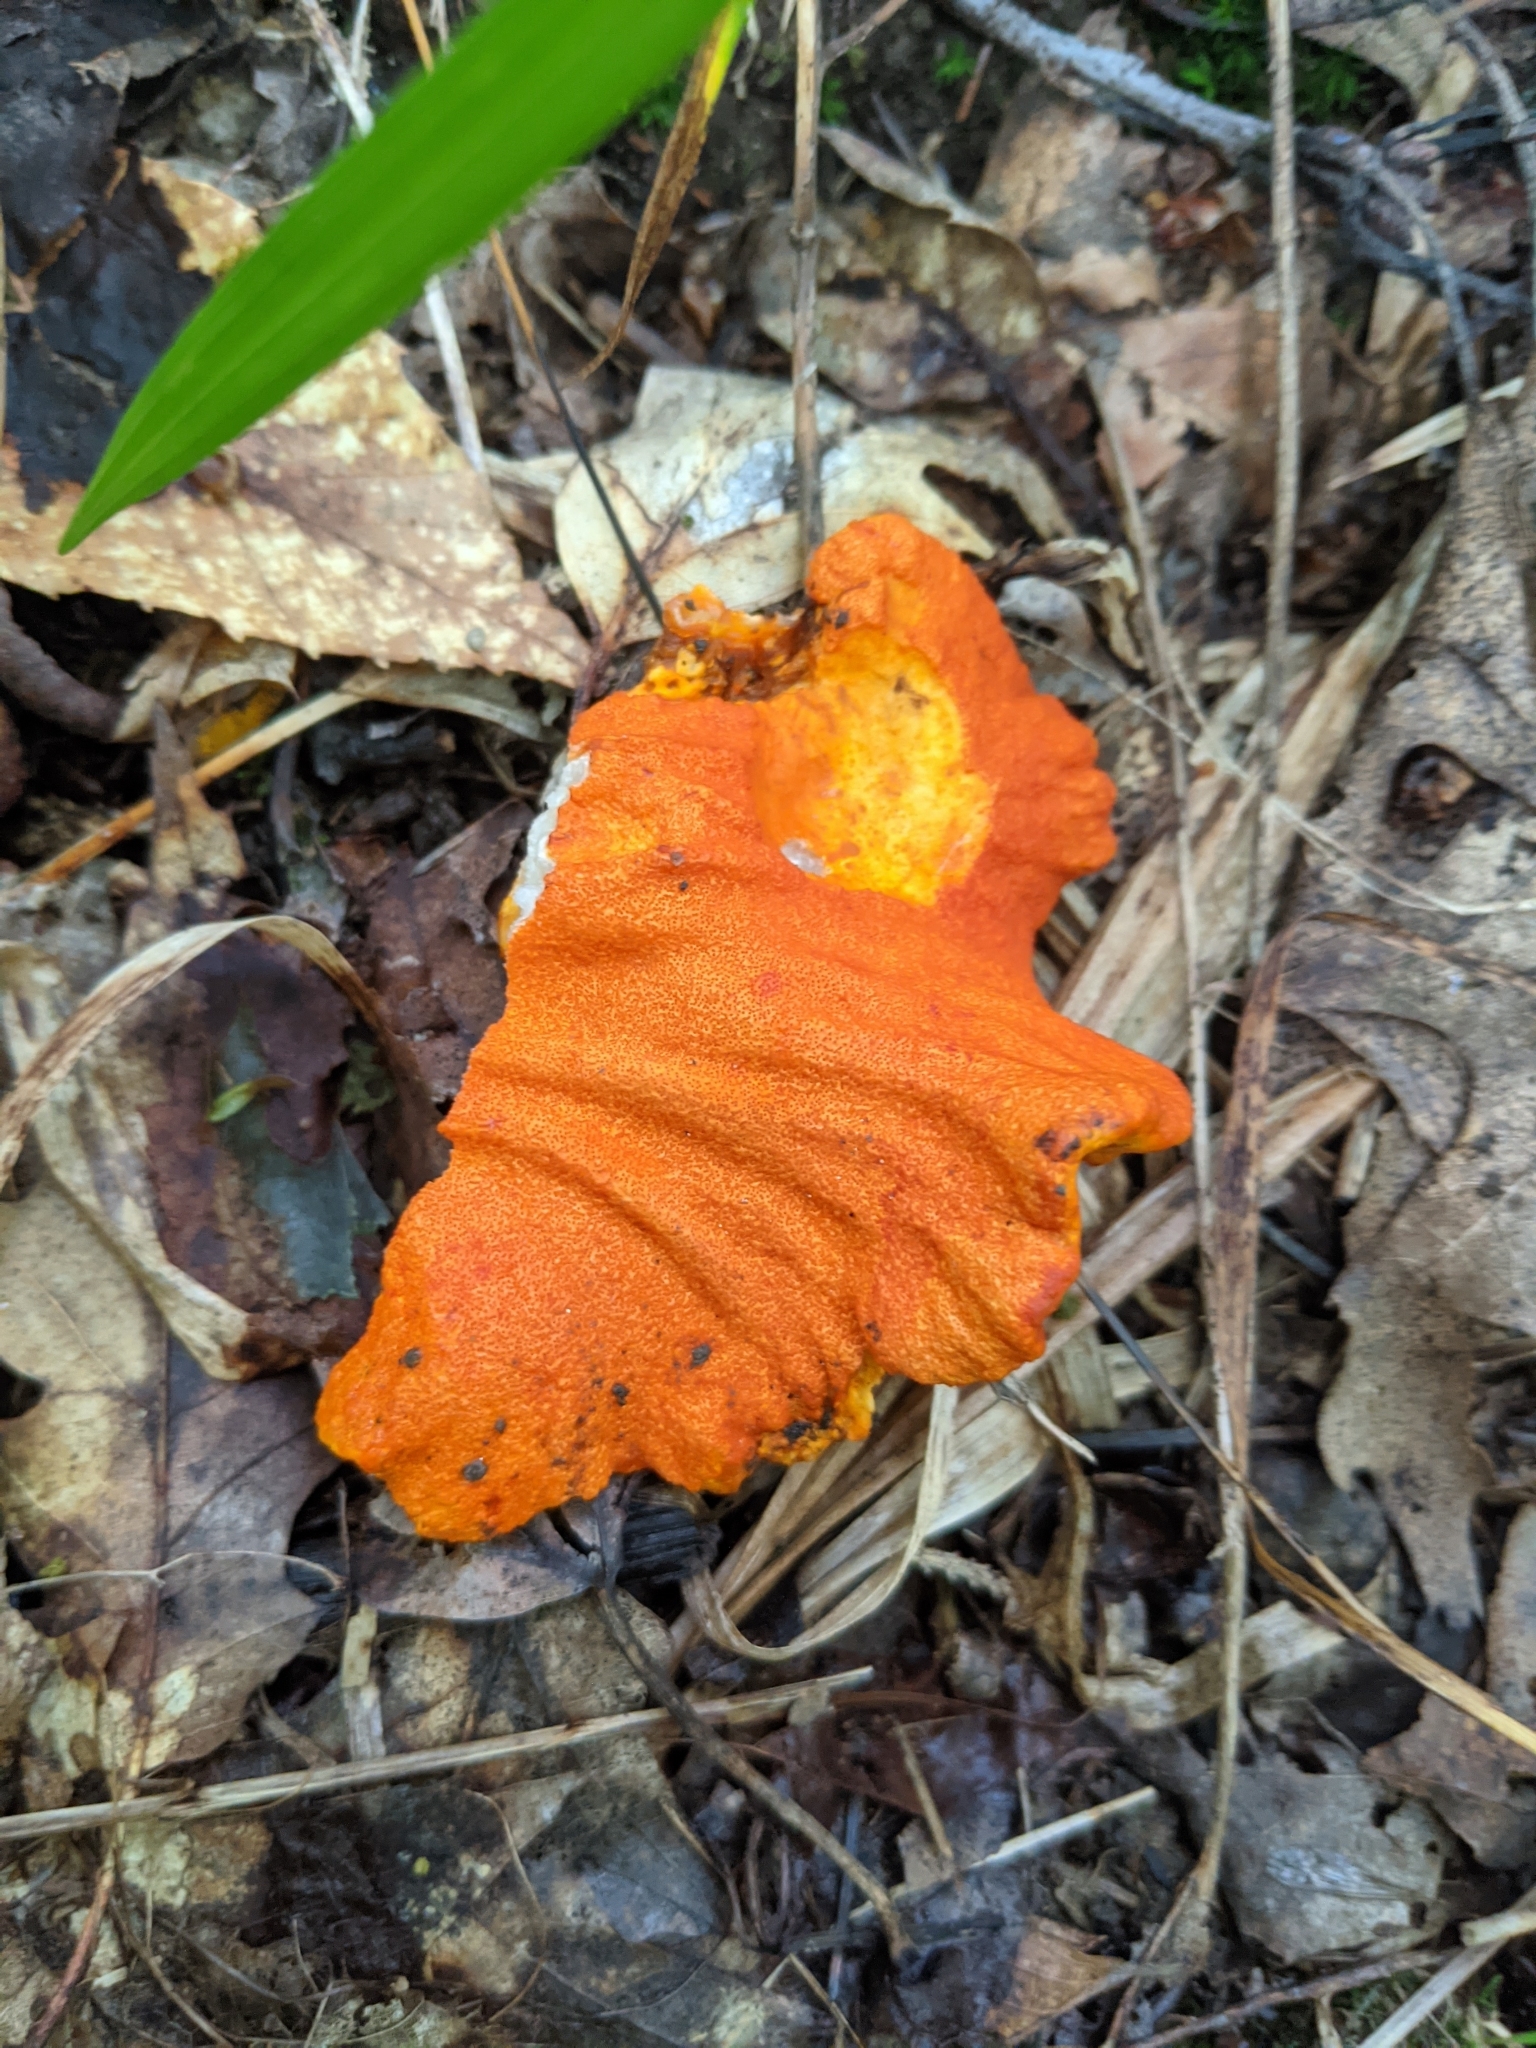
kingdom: Fungi
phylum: Ascomycota
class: Sordariomycetes
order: Hypocreales
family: Hypocreaceae
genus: Hypomyces
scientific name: Hypomyces lactifluorum
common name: Lobster mushroom
